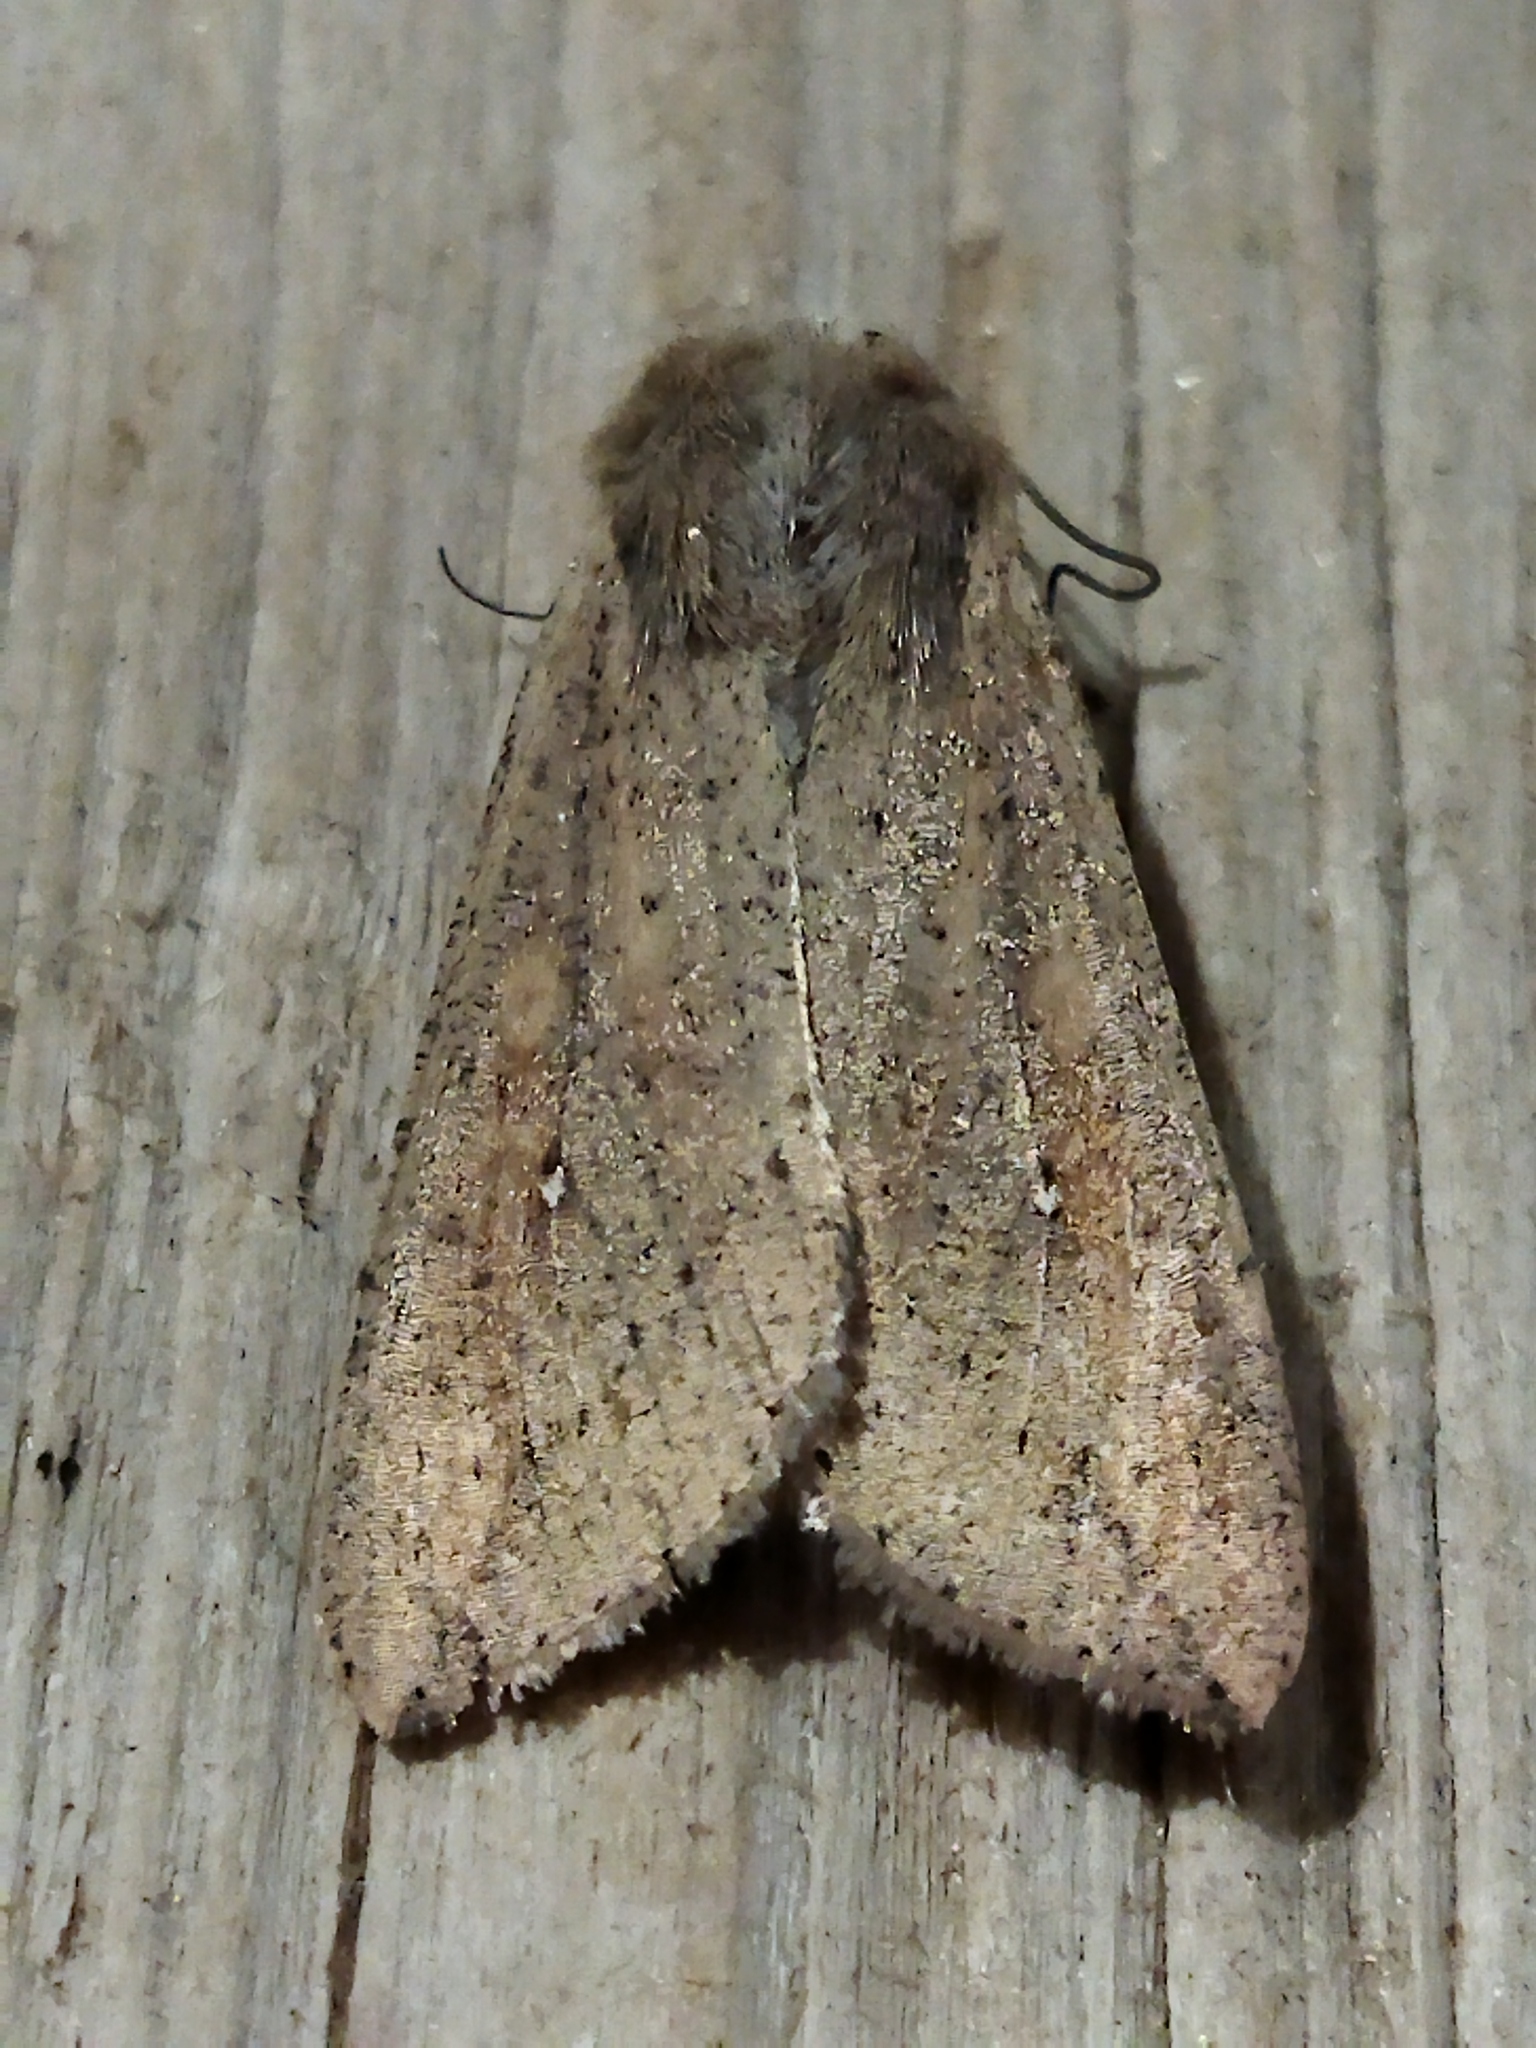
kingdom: Animalia
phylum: Arthropoda
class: Insecta
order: Lepidoptera
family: Noctuidae
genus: Mythimna
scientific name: Mythimna unipuncta
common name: White-speck
